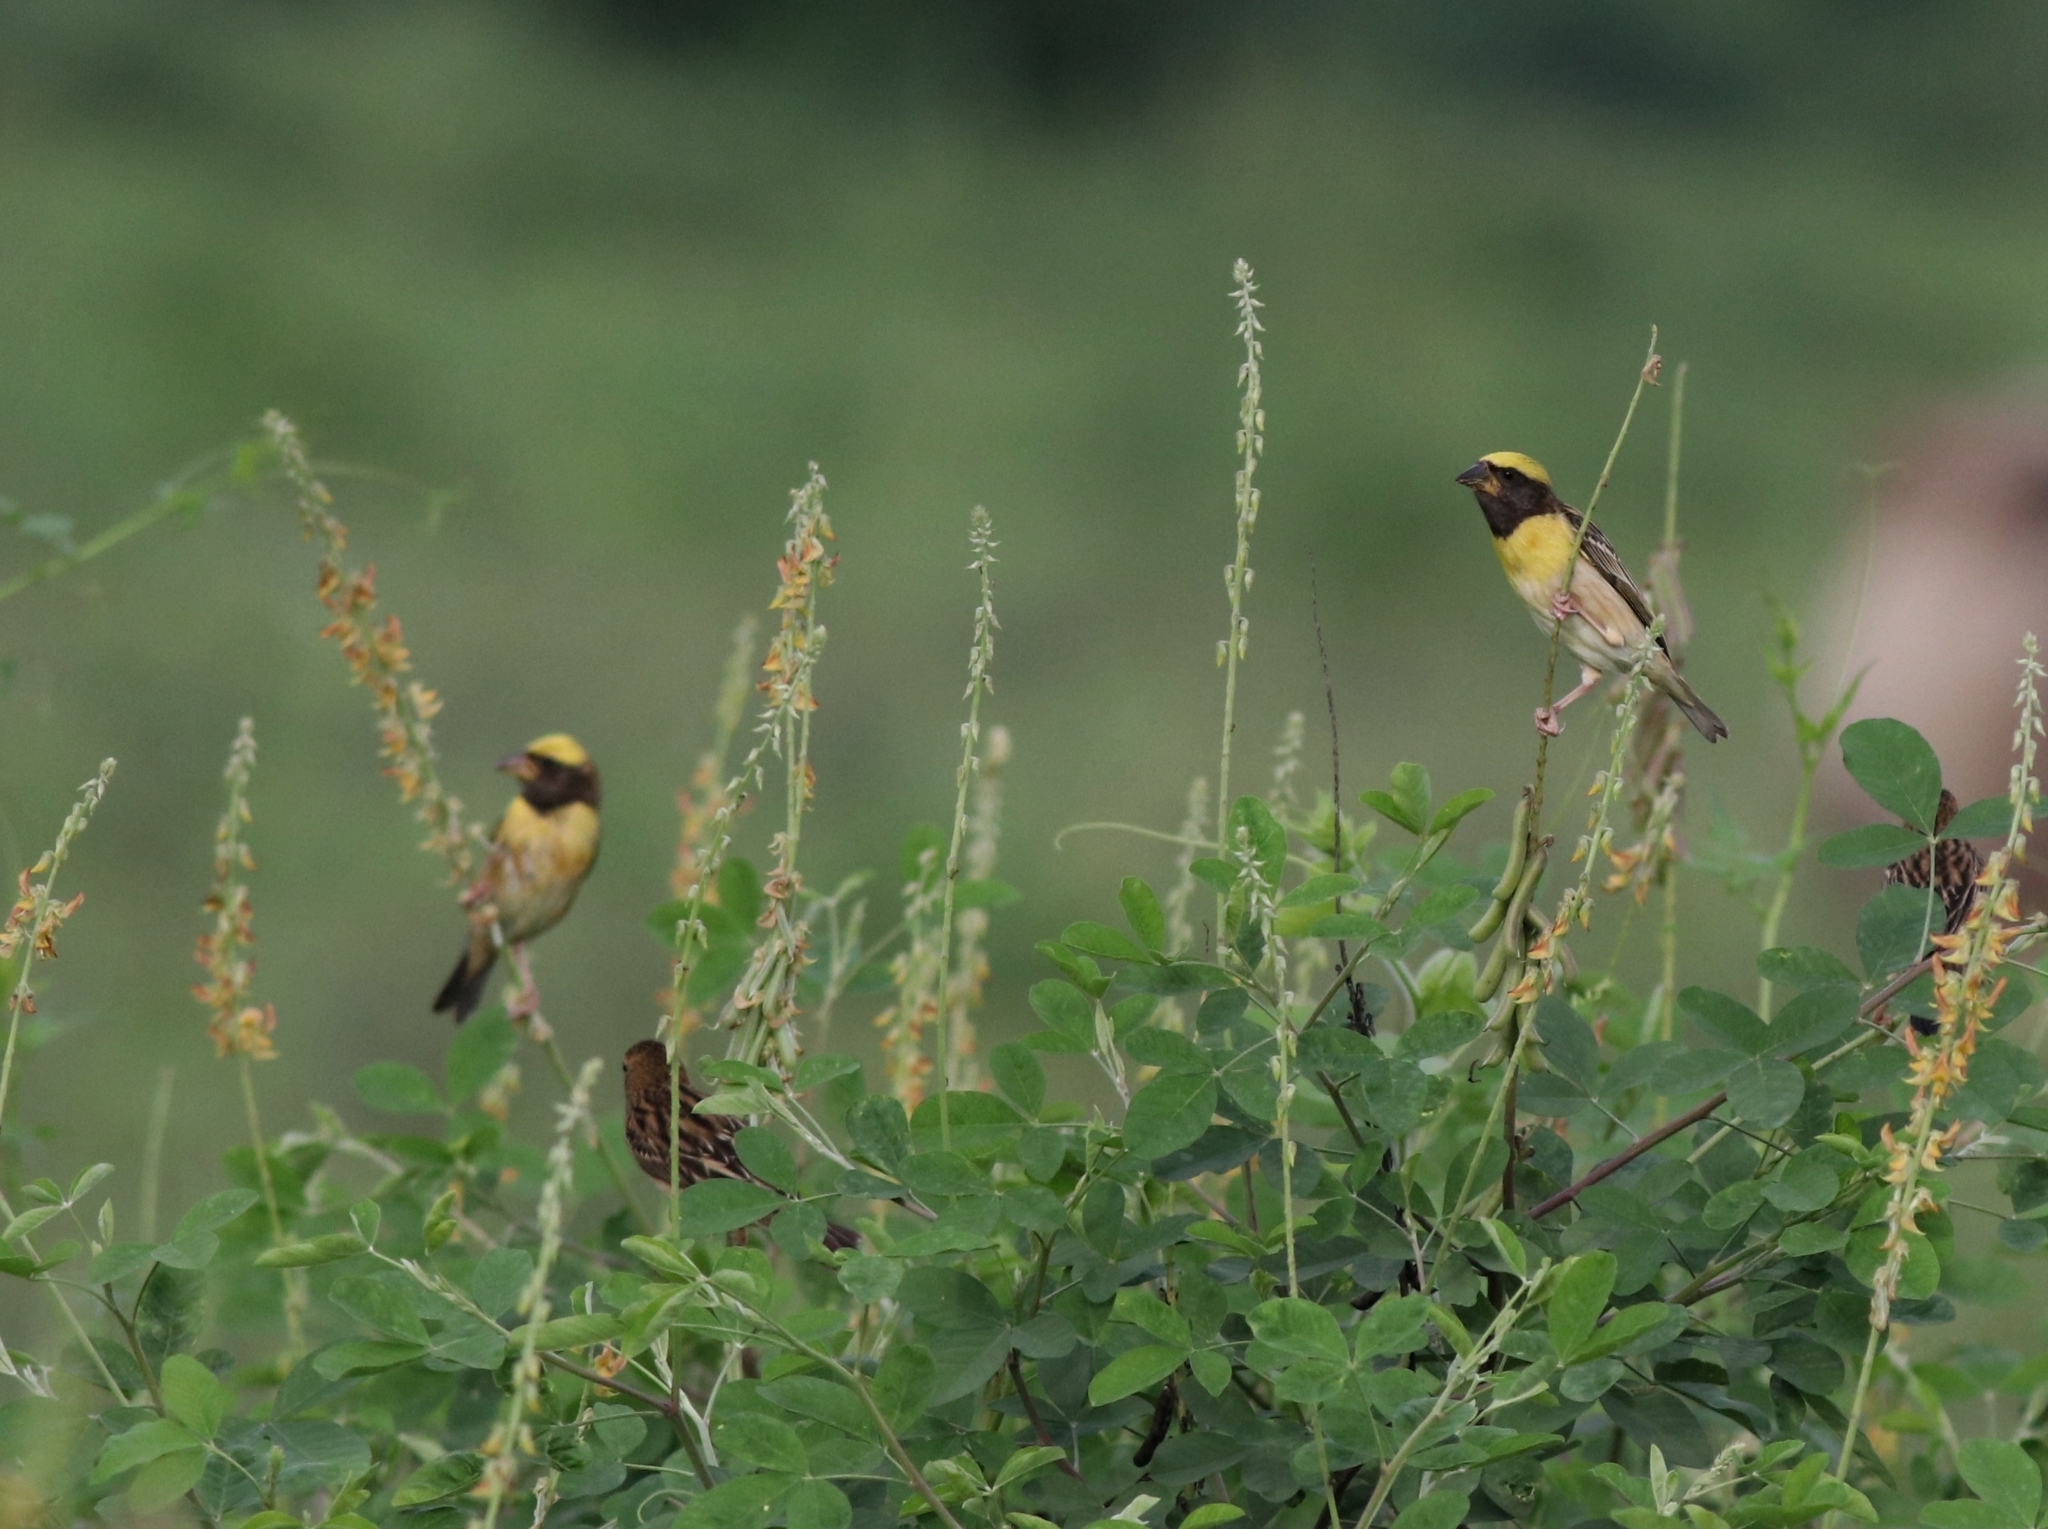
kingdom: Animalia
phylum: Chordata
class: Aves
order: Passeriformes
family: Ploceidae
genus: Ploceus
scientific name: Ploceus philippinus
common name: Baya weaver
